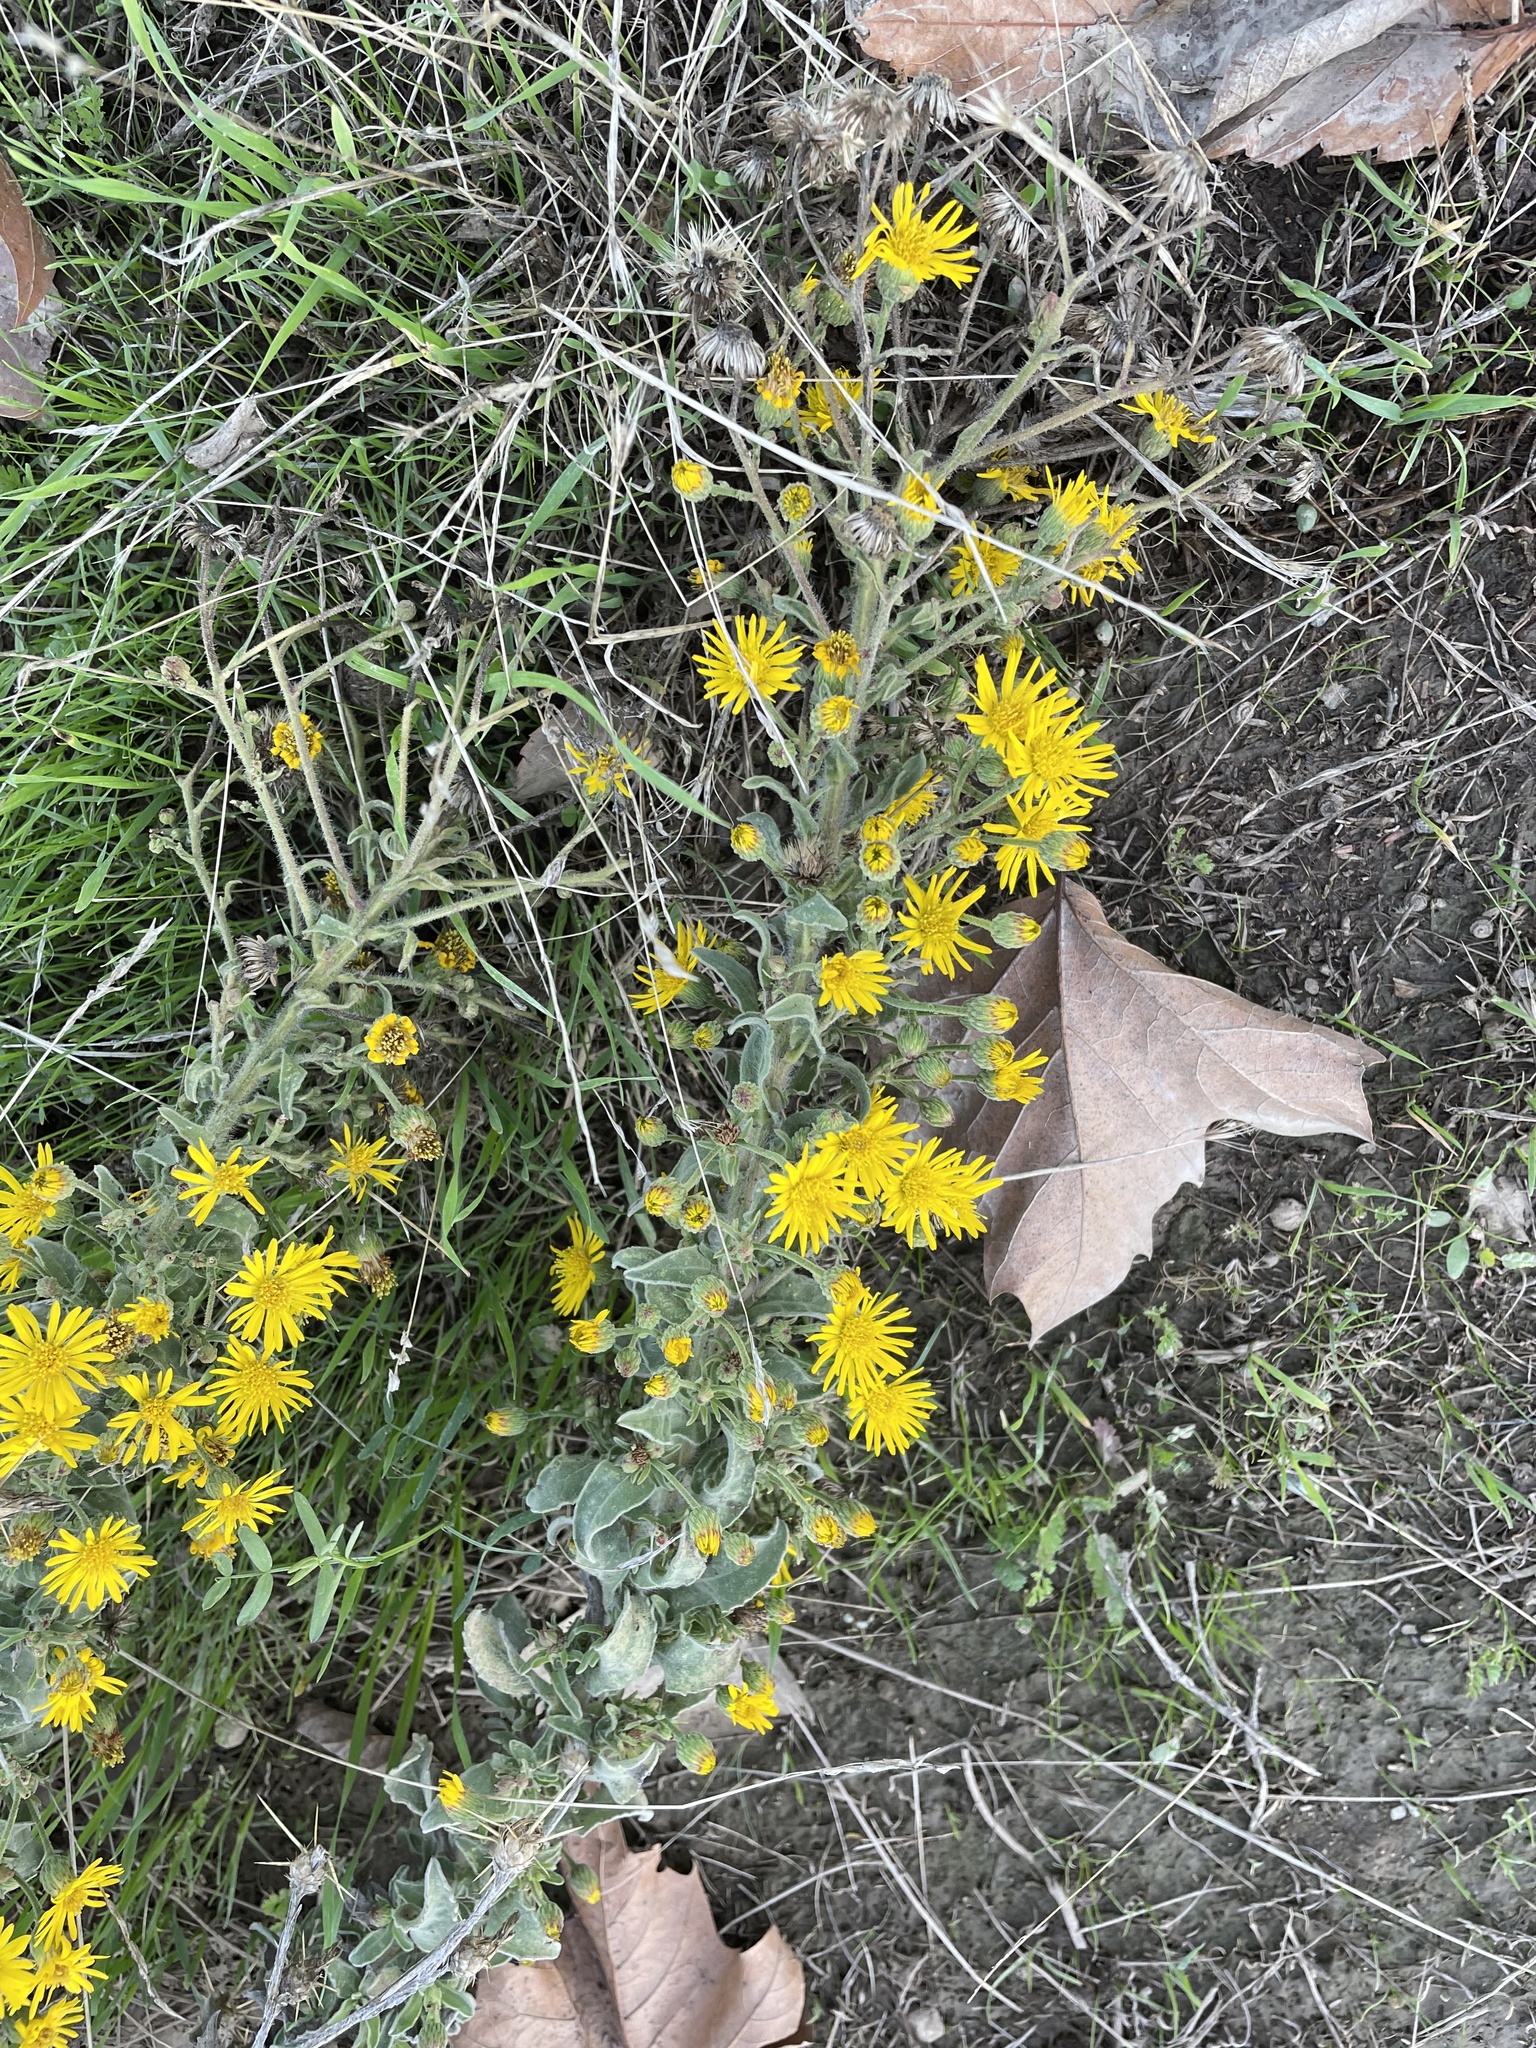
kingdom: Plantae
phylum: Tracheophyta
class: Magnoliopsida
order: Asterales
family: Asteraceae
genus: Heterotheca
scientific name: Heterotheca grandiflora
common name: Telegraphweed
